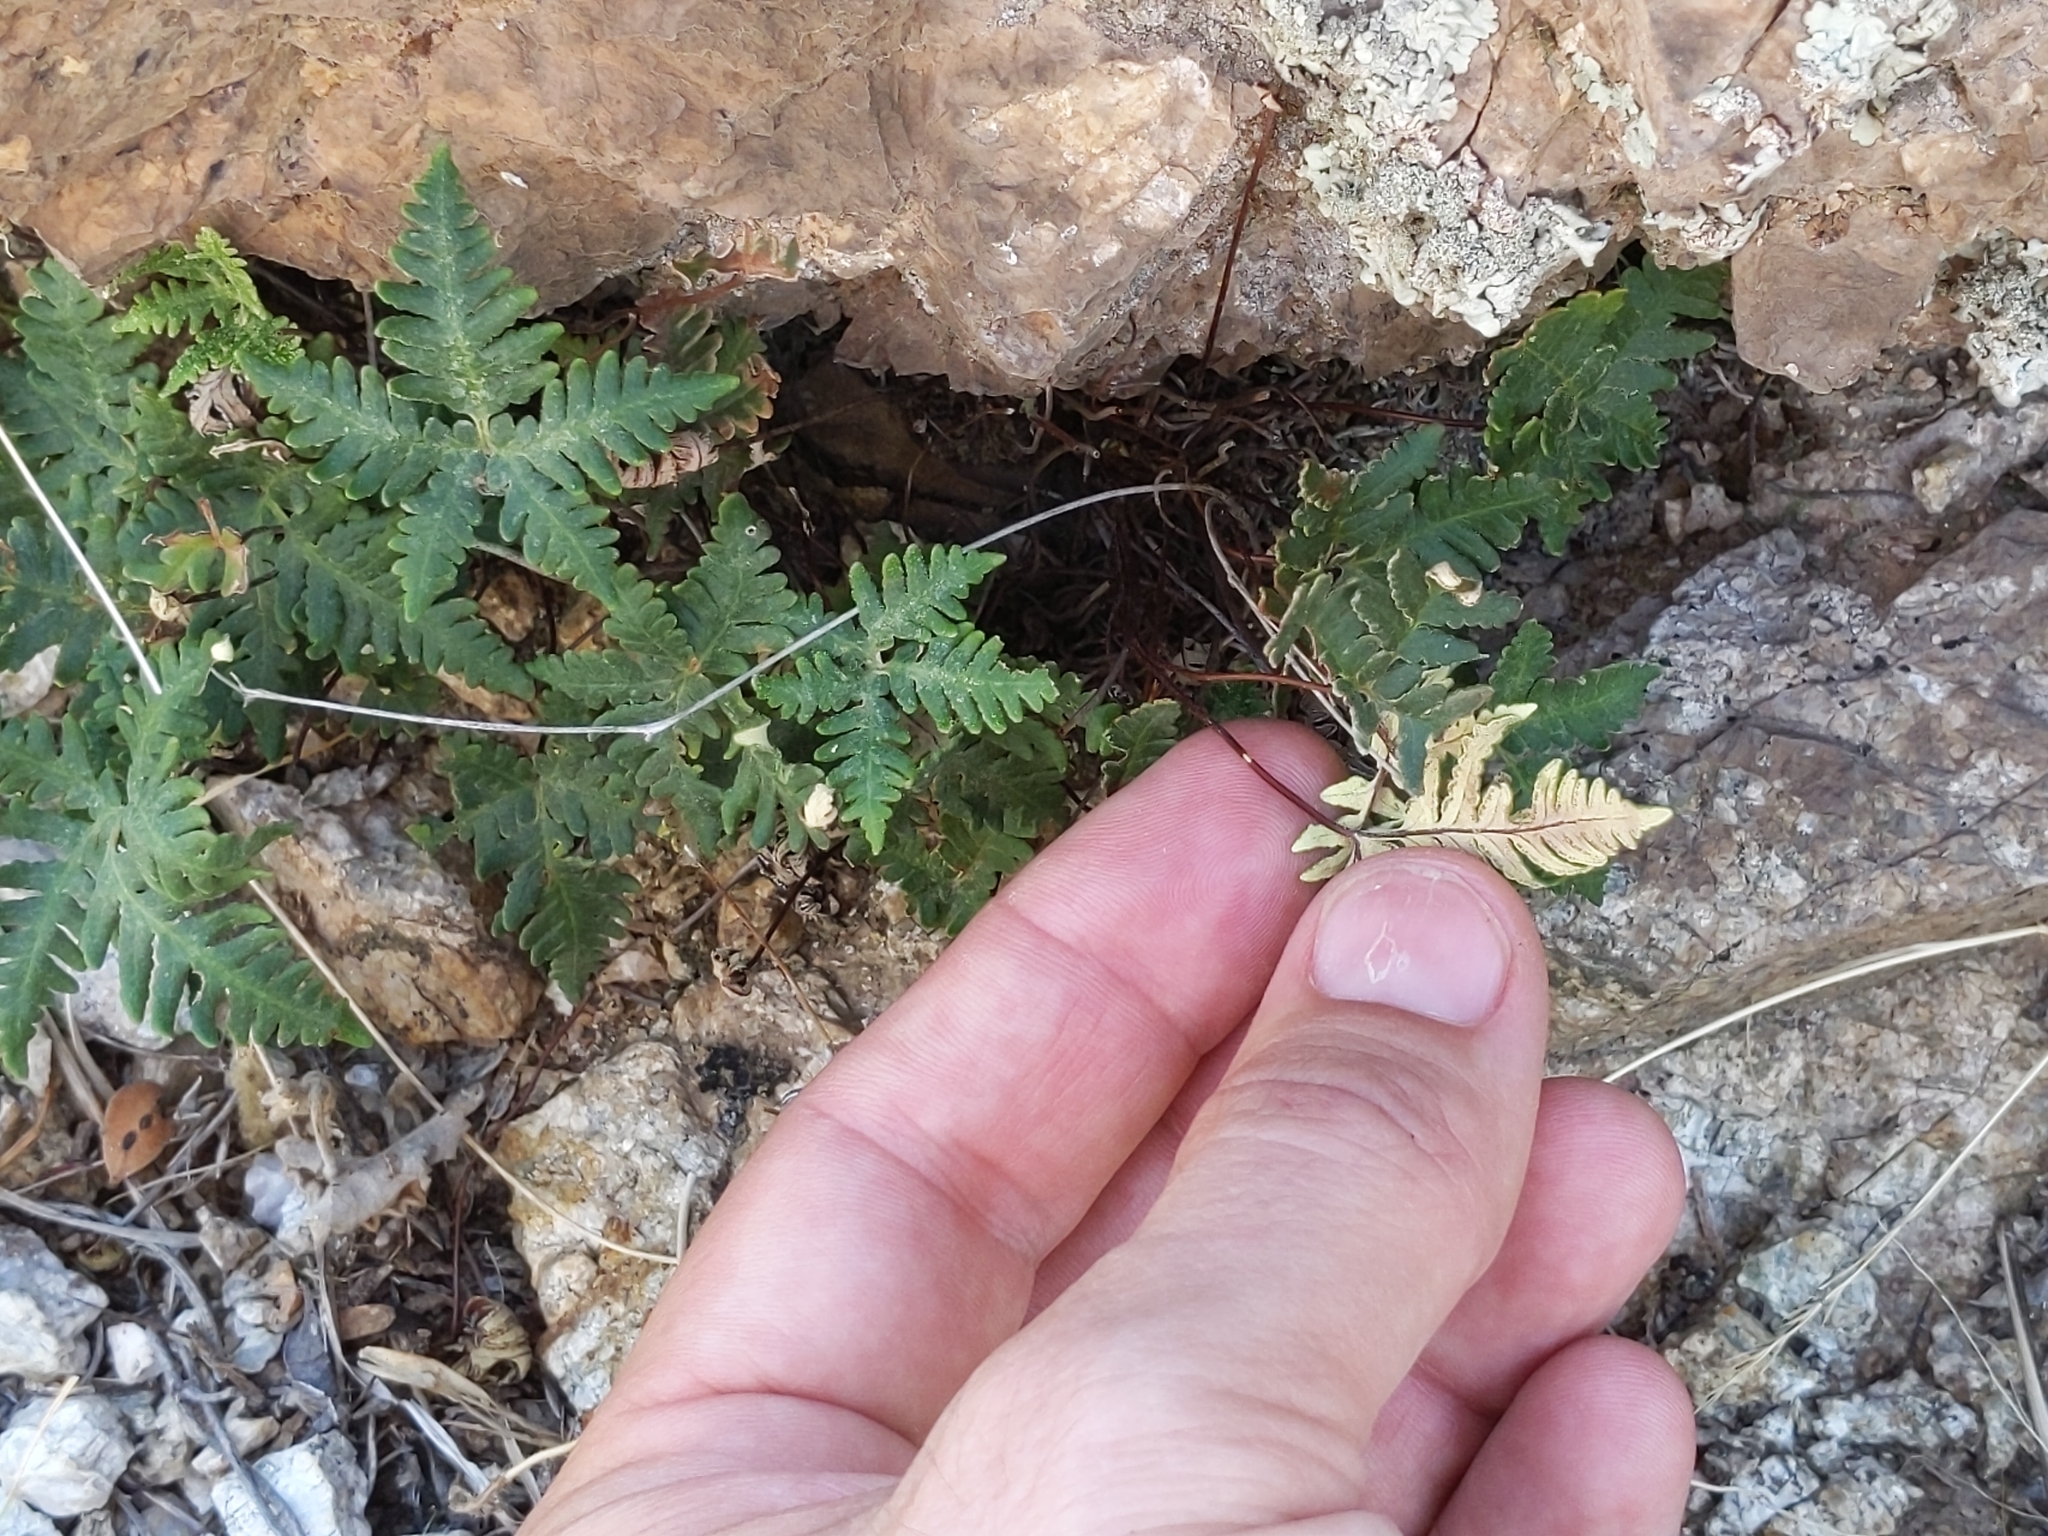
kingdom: Plantae
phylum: Tracheophyta
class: Polypodiopsida
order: Polypodiales
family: Pteridaceae
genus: Notholaena
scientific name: Notholaena standleyi
